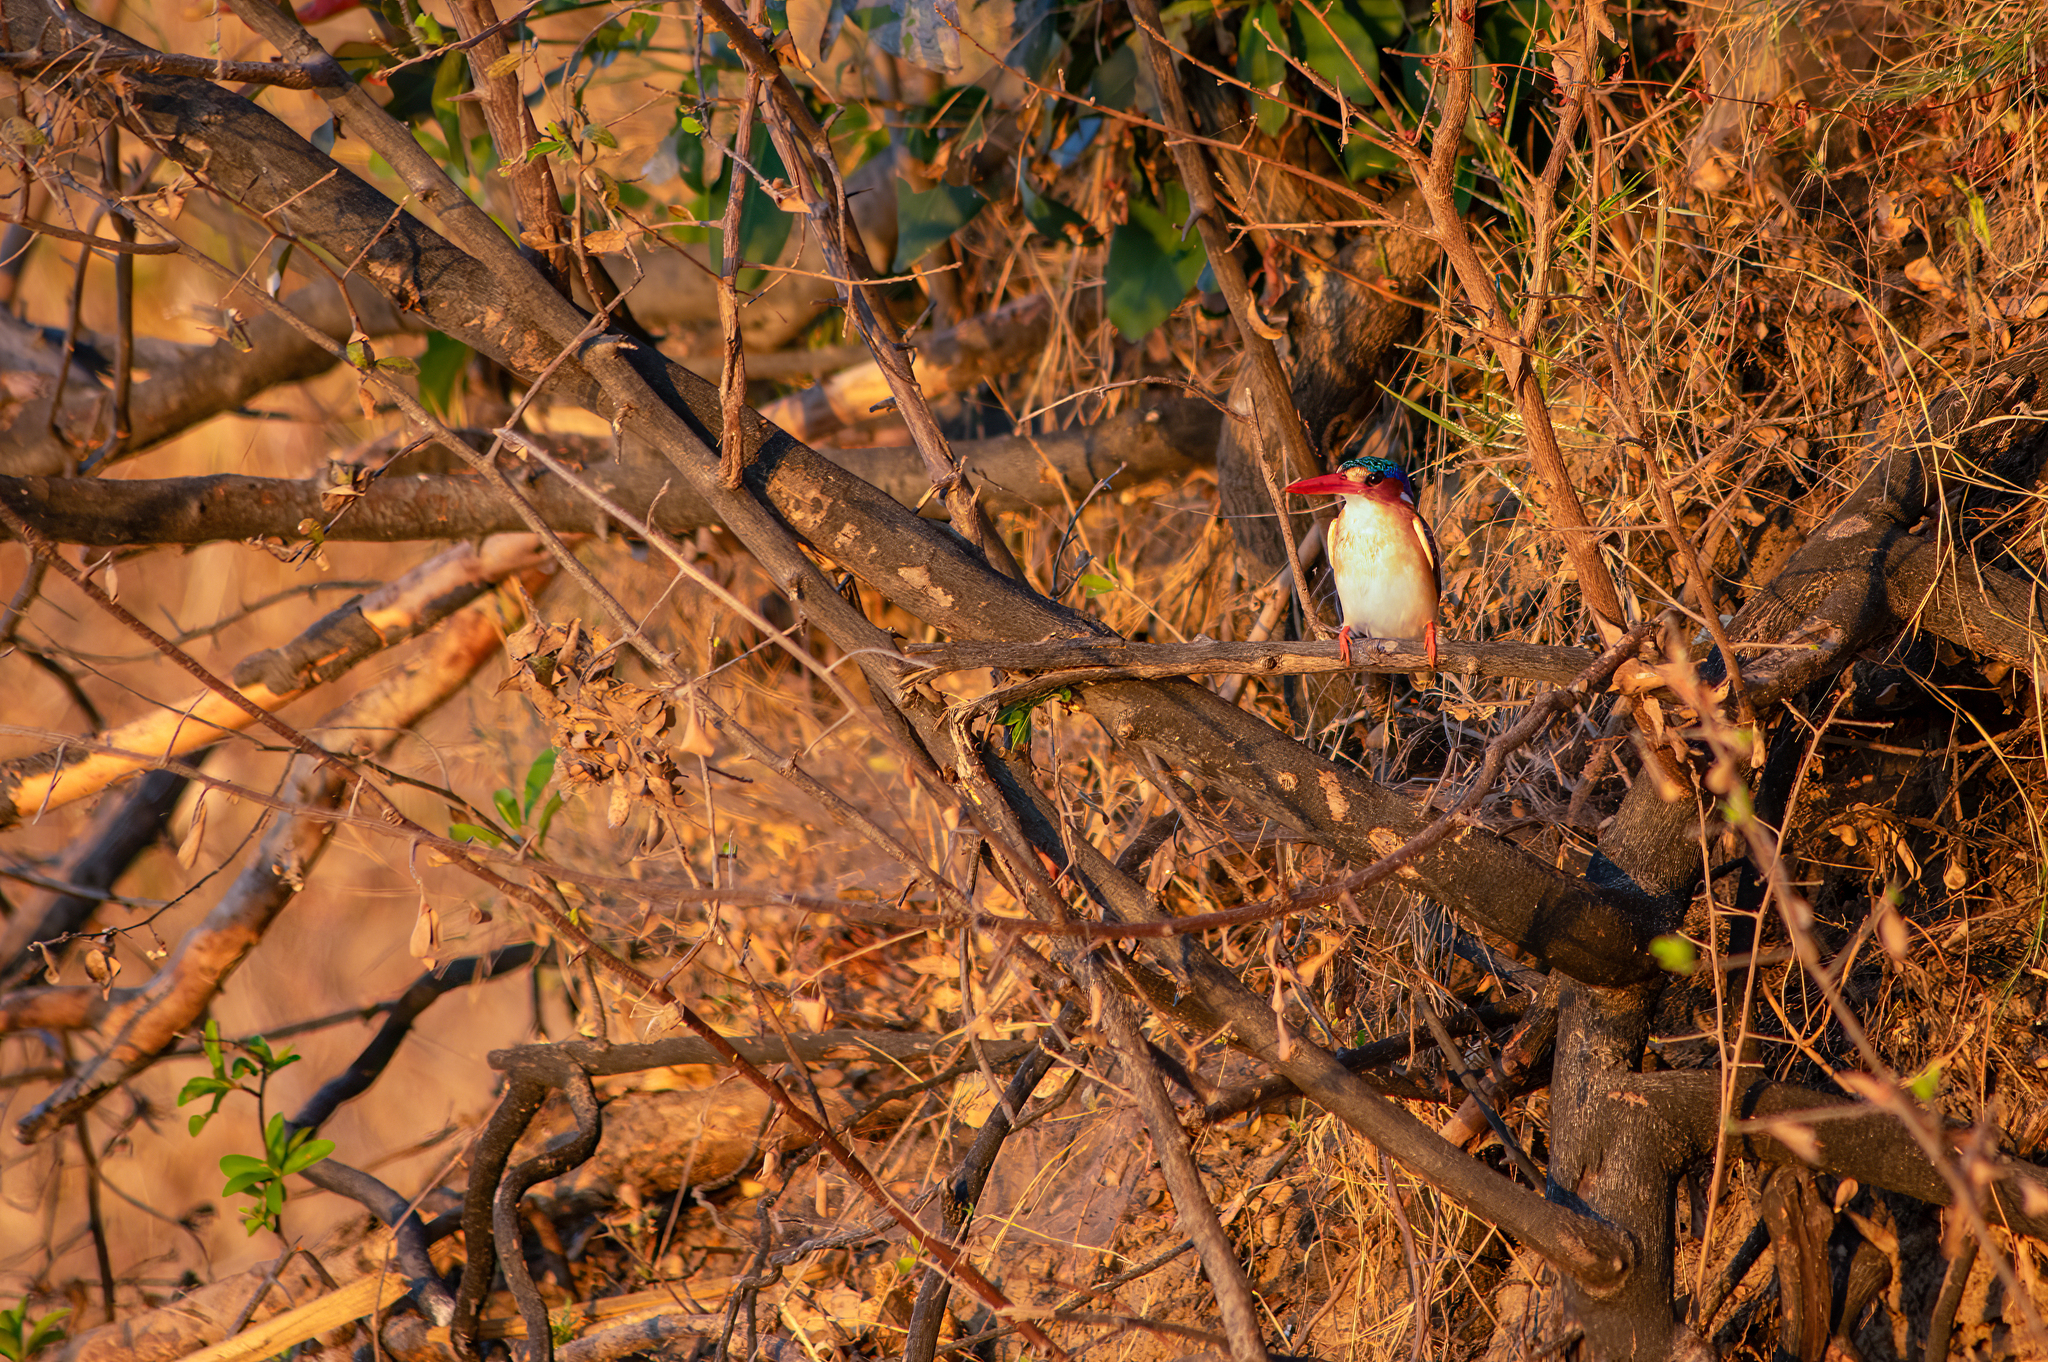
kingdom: Animalia
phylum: Chordata
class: Aves
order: Coraciiformes
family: Alcedinidae
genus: Corythornis
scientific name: Corythornis cristatus
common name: Malachite kingfisher
